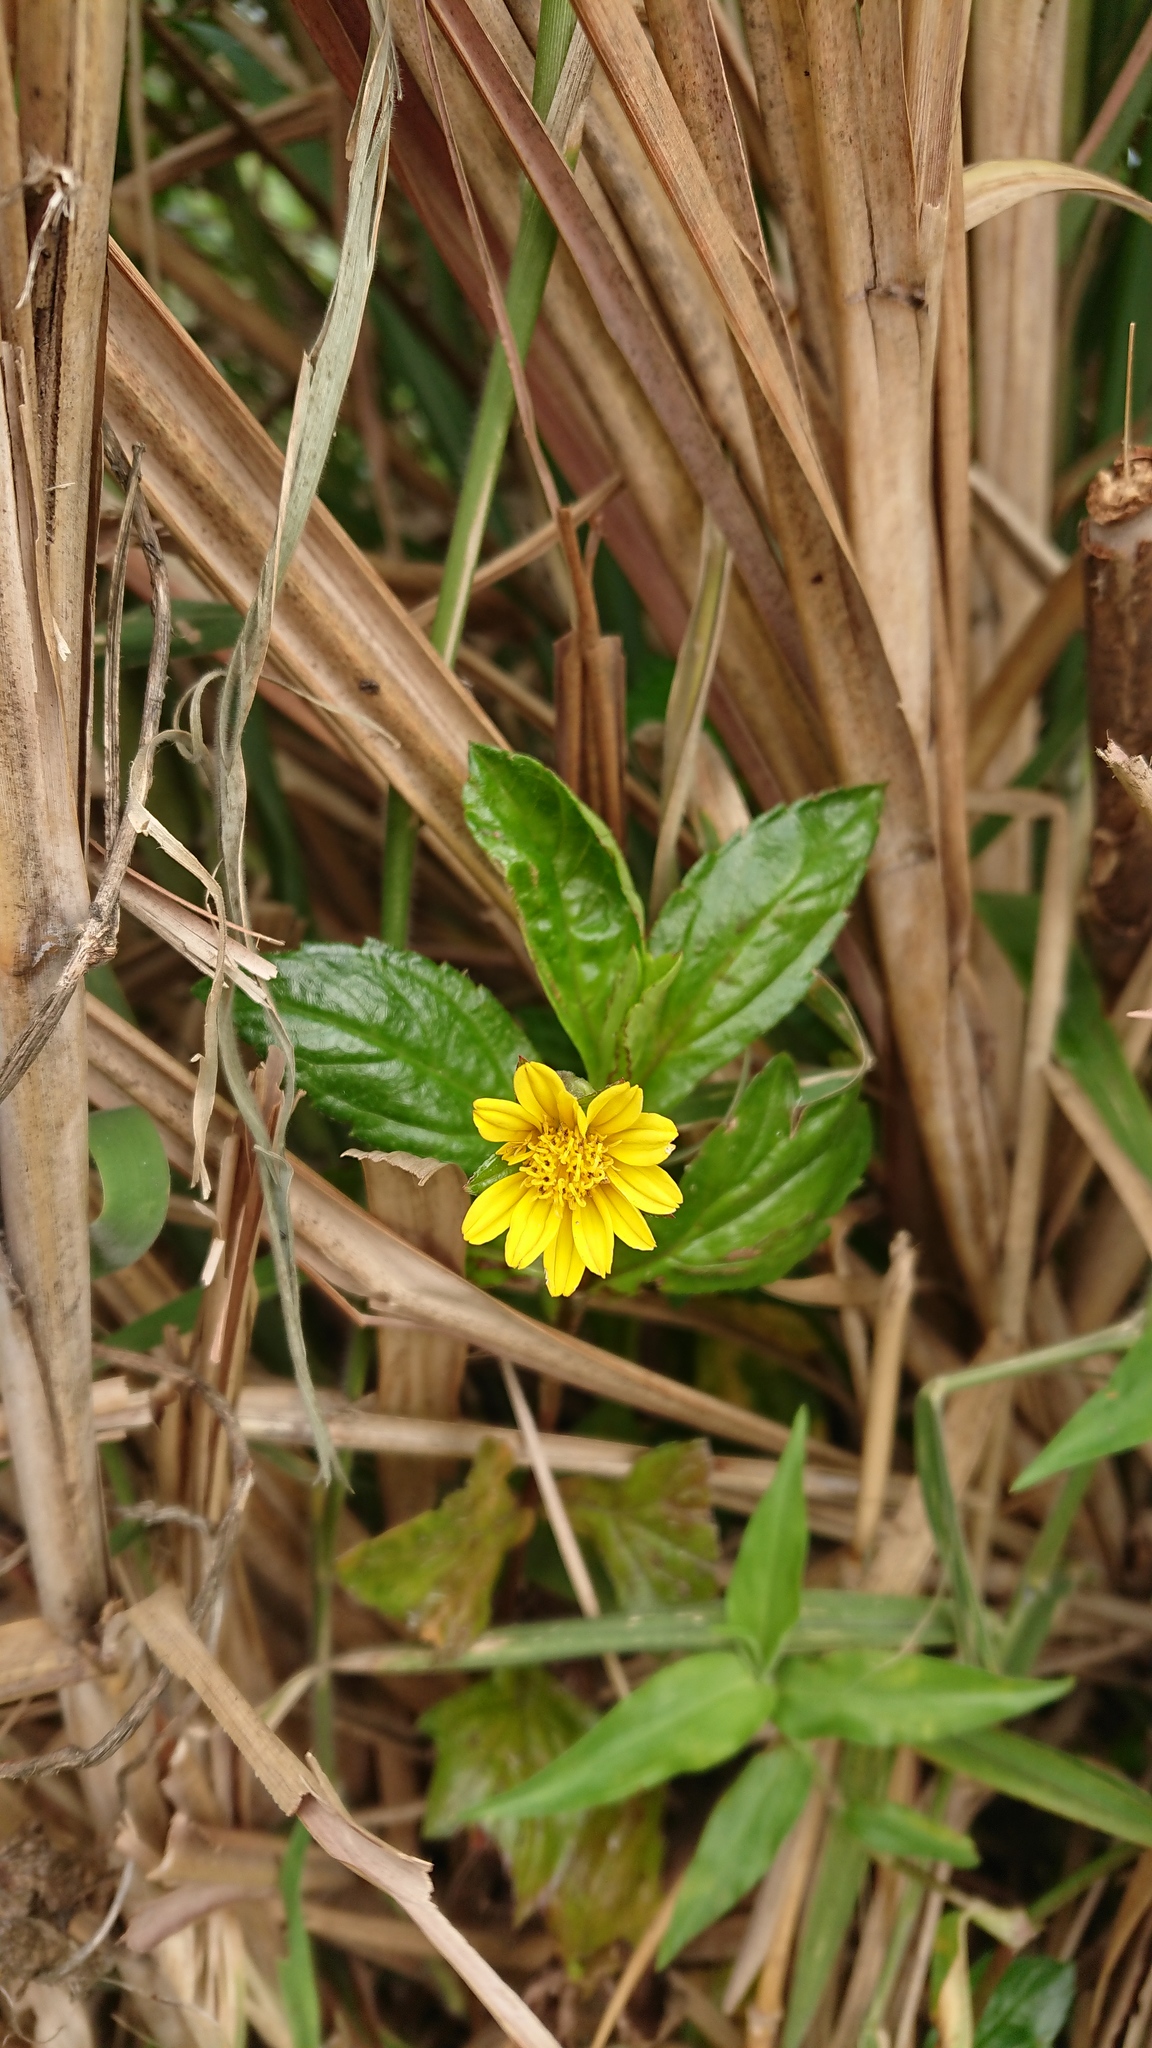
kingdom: Plantae
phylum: Tracheophyta
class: Magnoliopsida
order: Asterales
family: Asteraceae
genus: Sphagneticola
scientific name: Sphagneticola trilobata
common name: Bay biscayne creeping-oxeye
